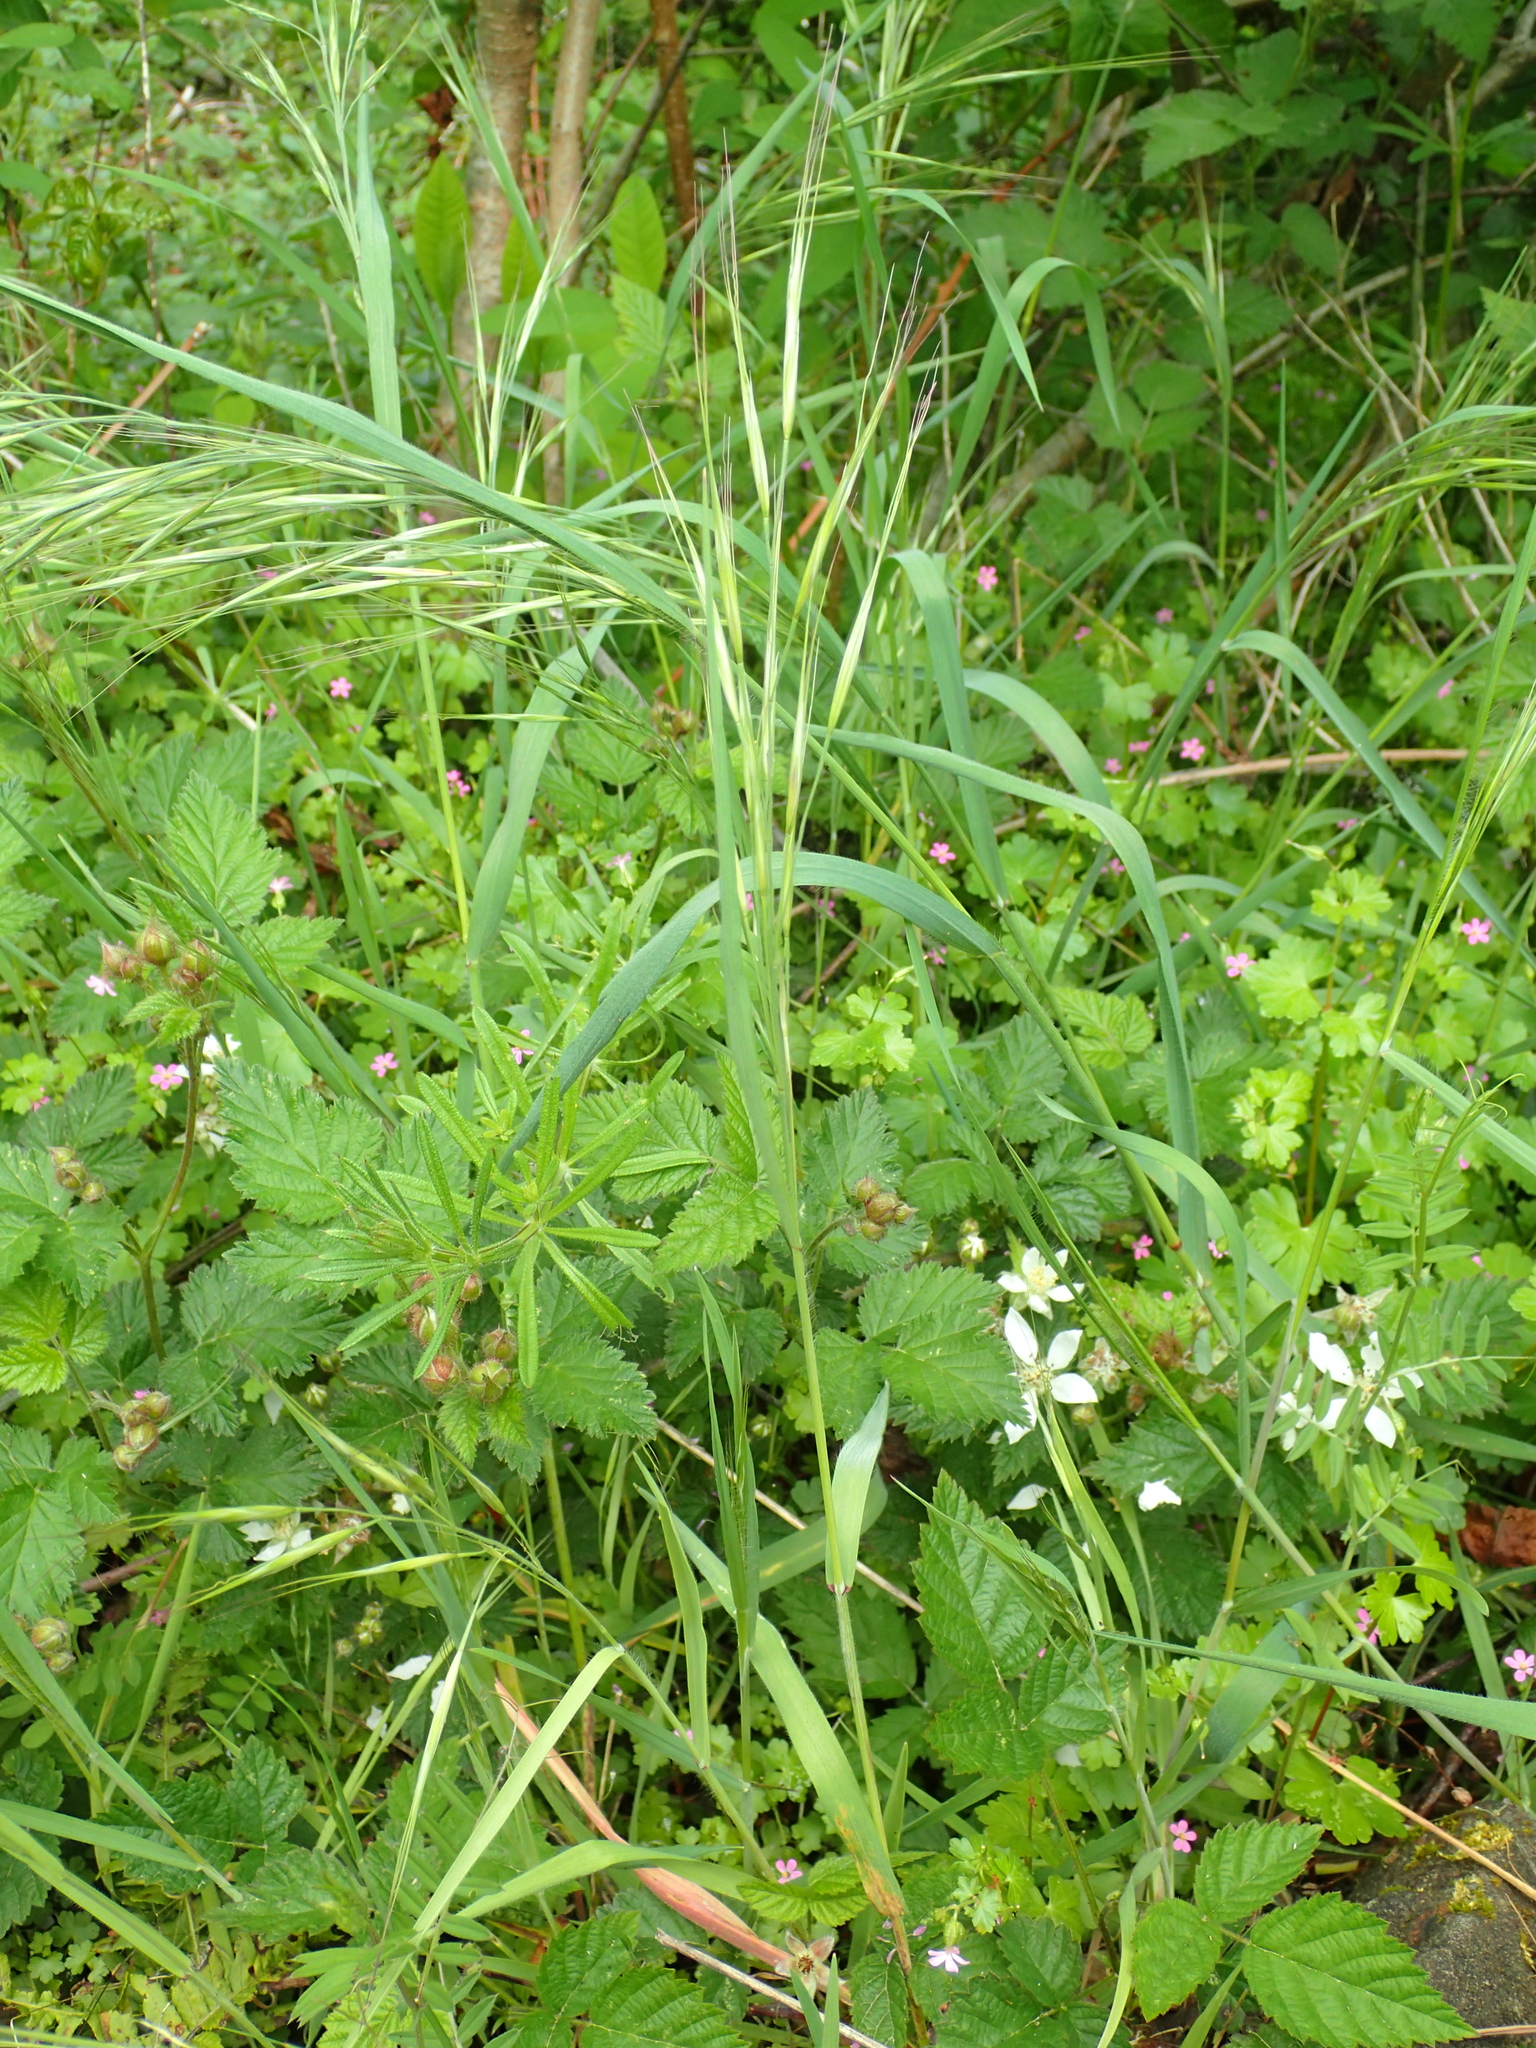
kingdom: Plantae
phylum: Tracheophyta
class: Liliopsida
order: Poales
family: Poaceae
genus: Bromus
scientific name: Bromus sterilis
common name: Poverty brome
